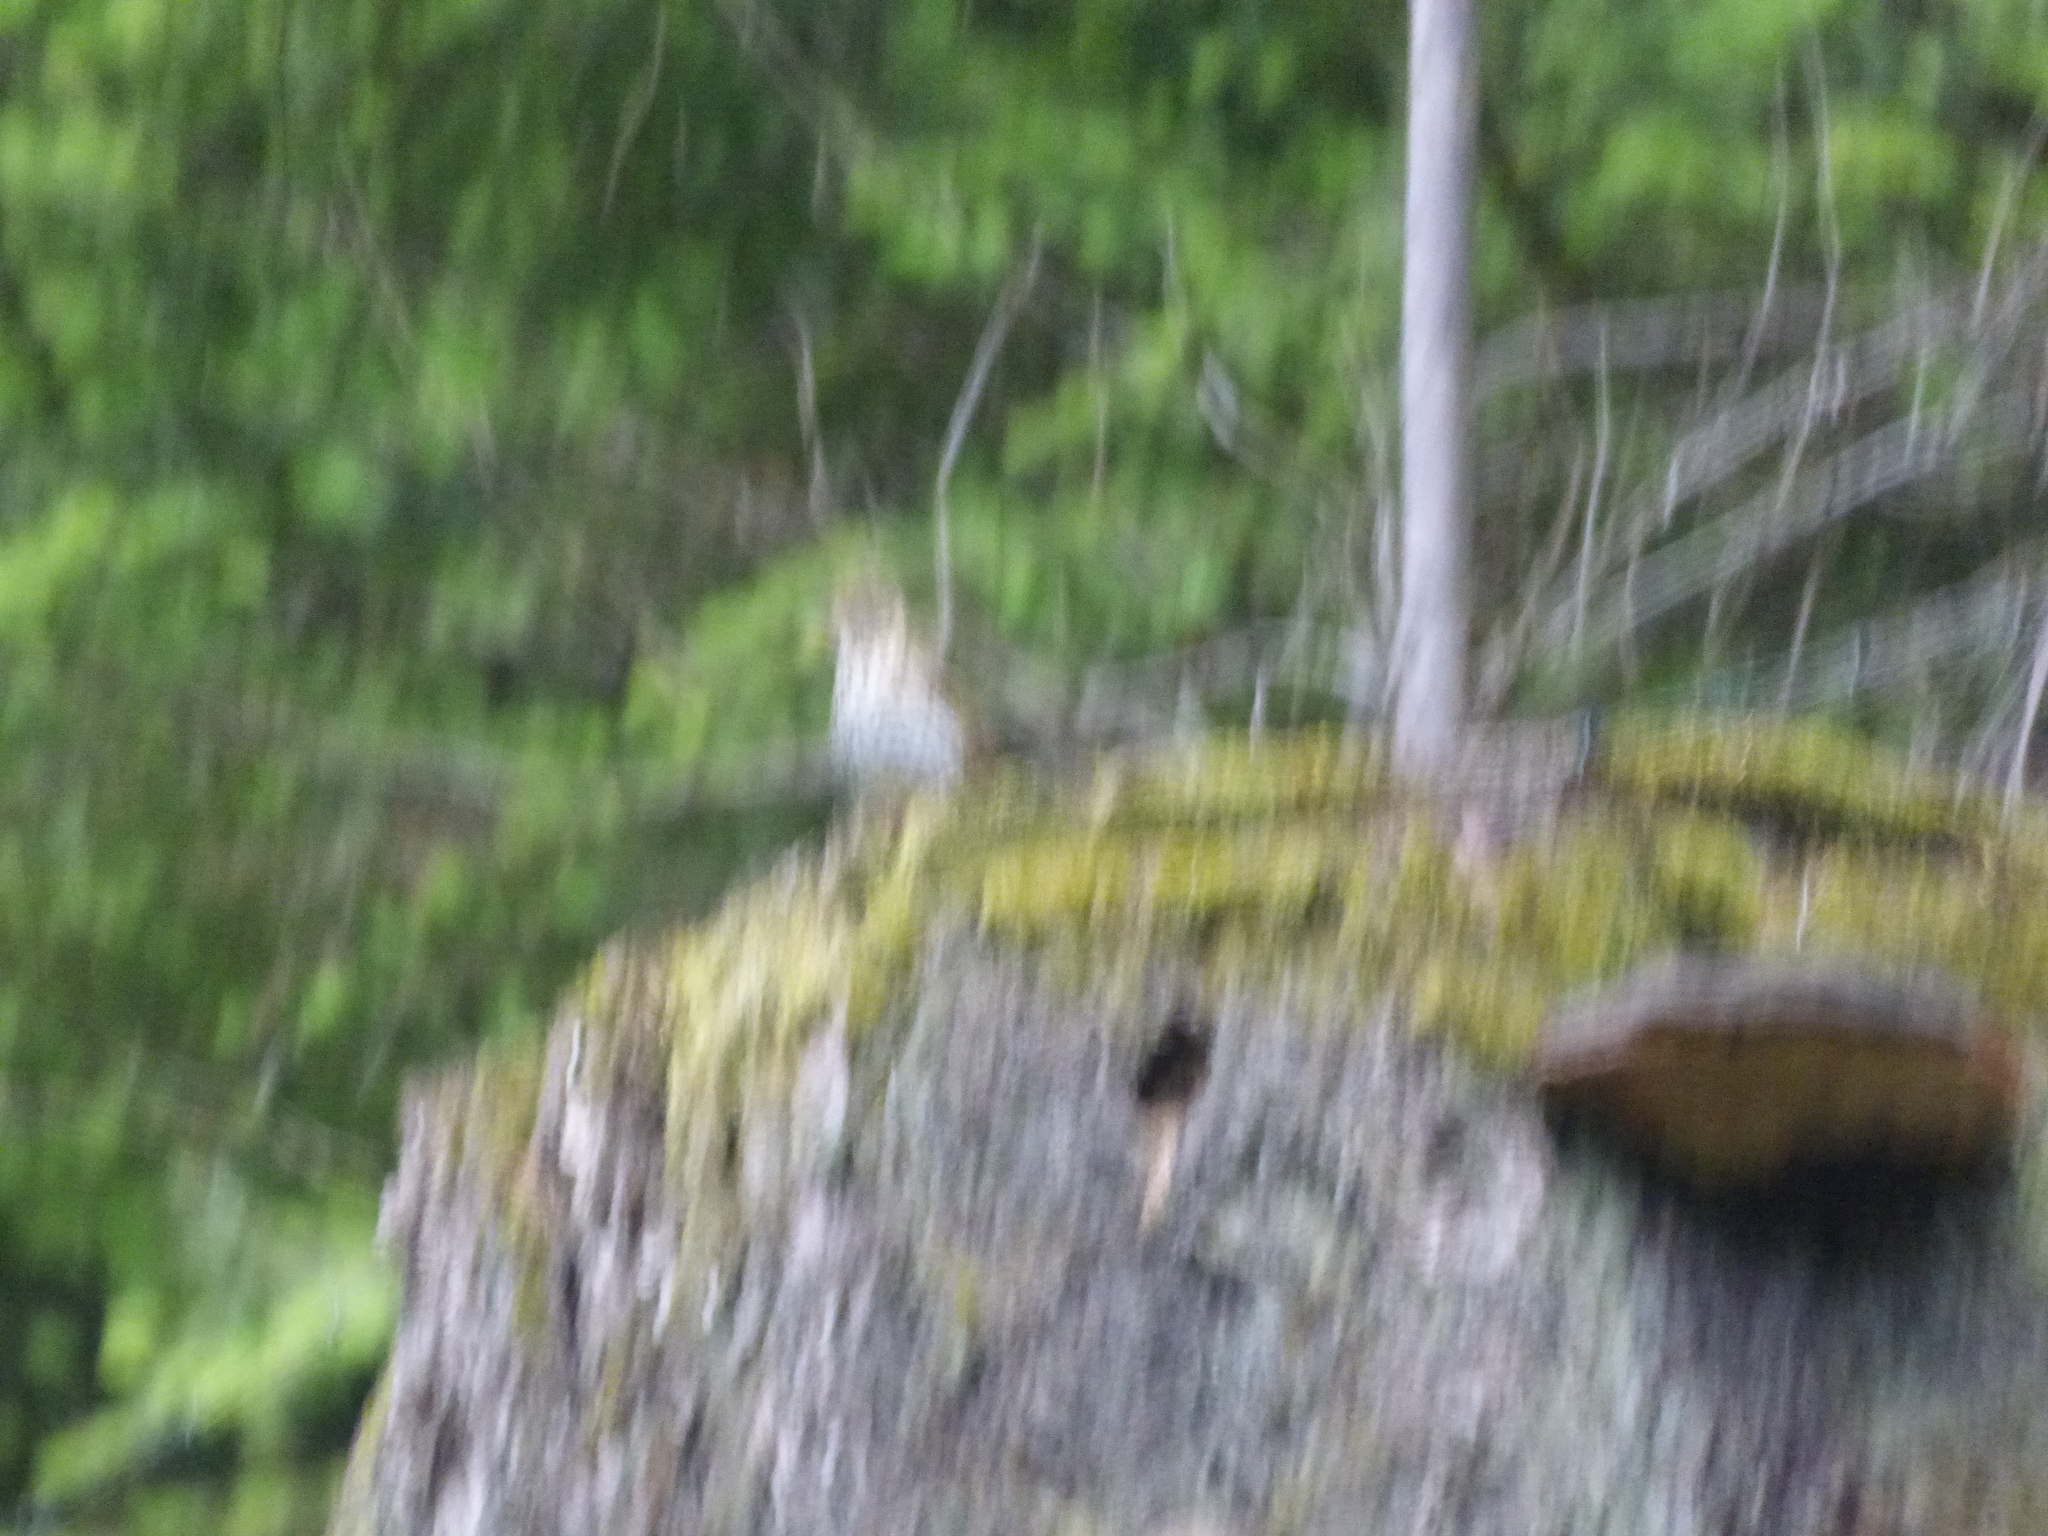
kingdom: Animalia
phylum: Chordata
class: Aves
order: Passeriformes
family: Turdidae
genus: Turdus
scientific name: Turdus philomelos
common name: Song thrush
